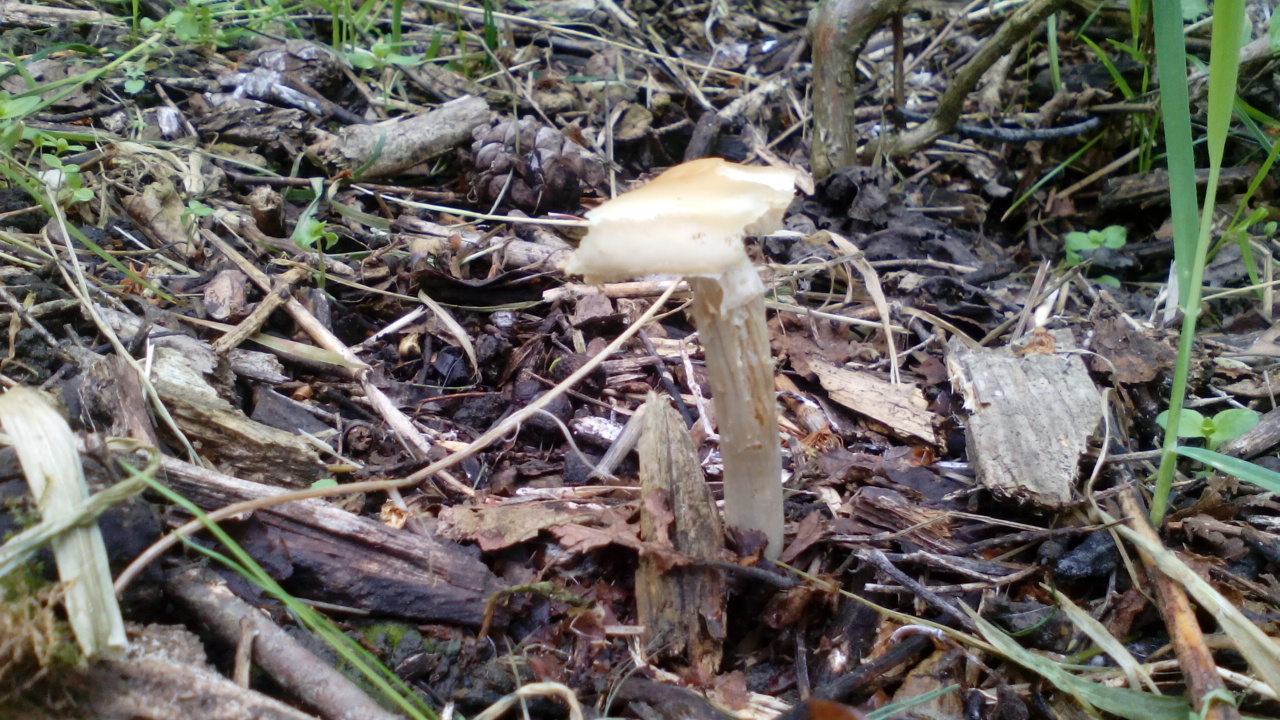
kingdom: Fungi
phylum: Basidiomycota
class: Agaricomycetes
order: Agaricales
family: Strophariaceae
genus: Agrocybe
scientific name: Agrocybe praecox
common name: Spring fieldcap
